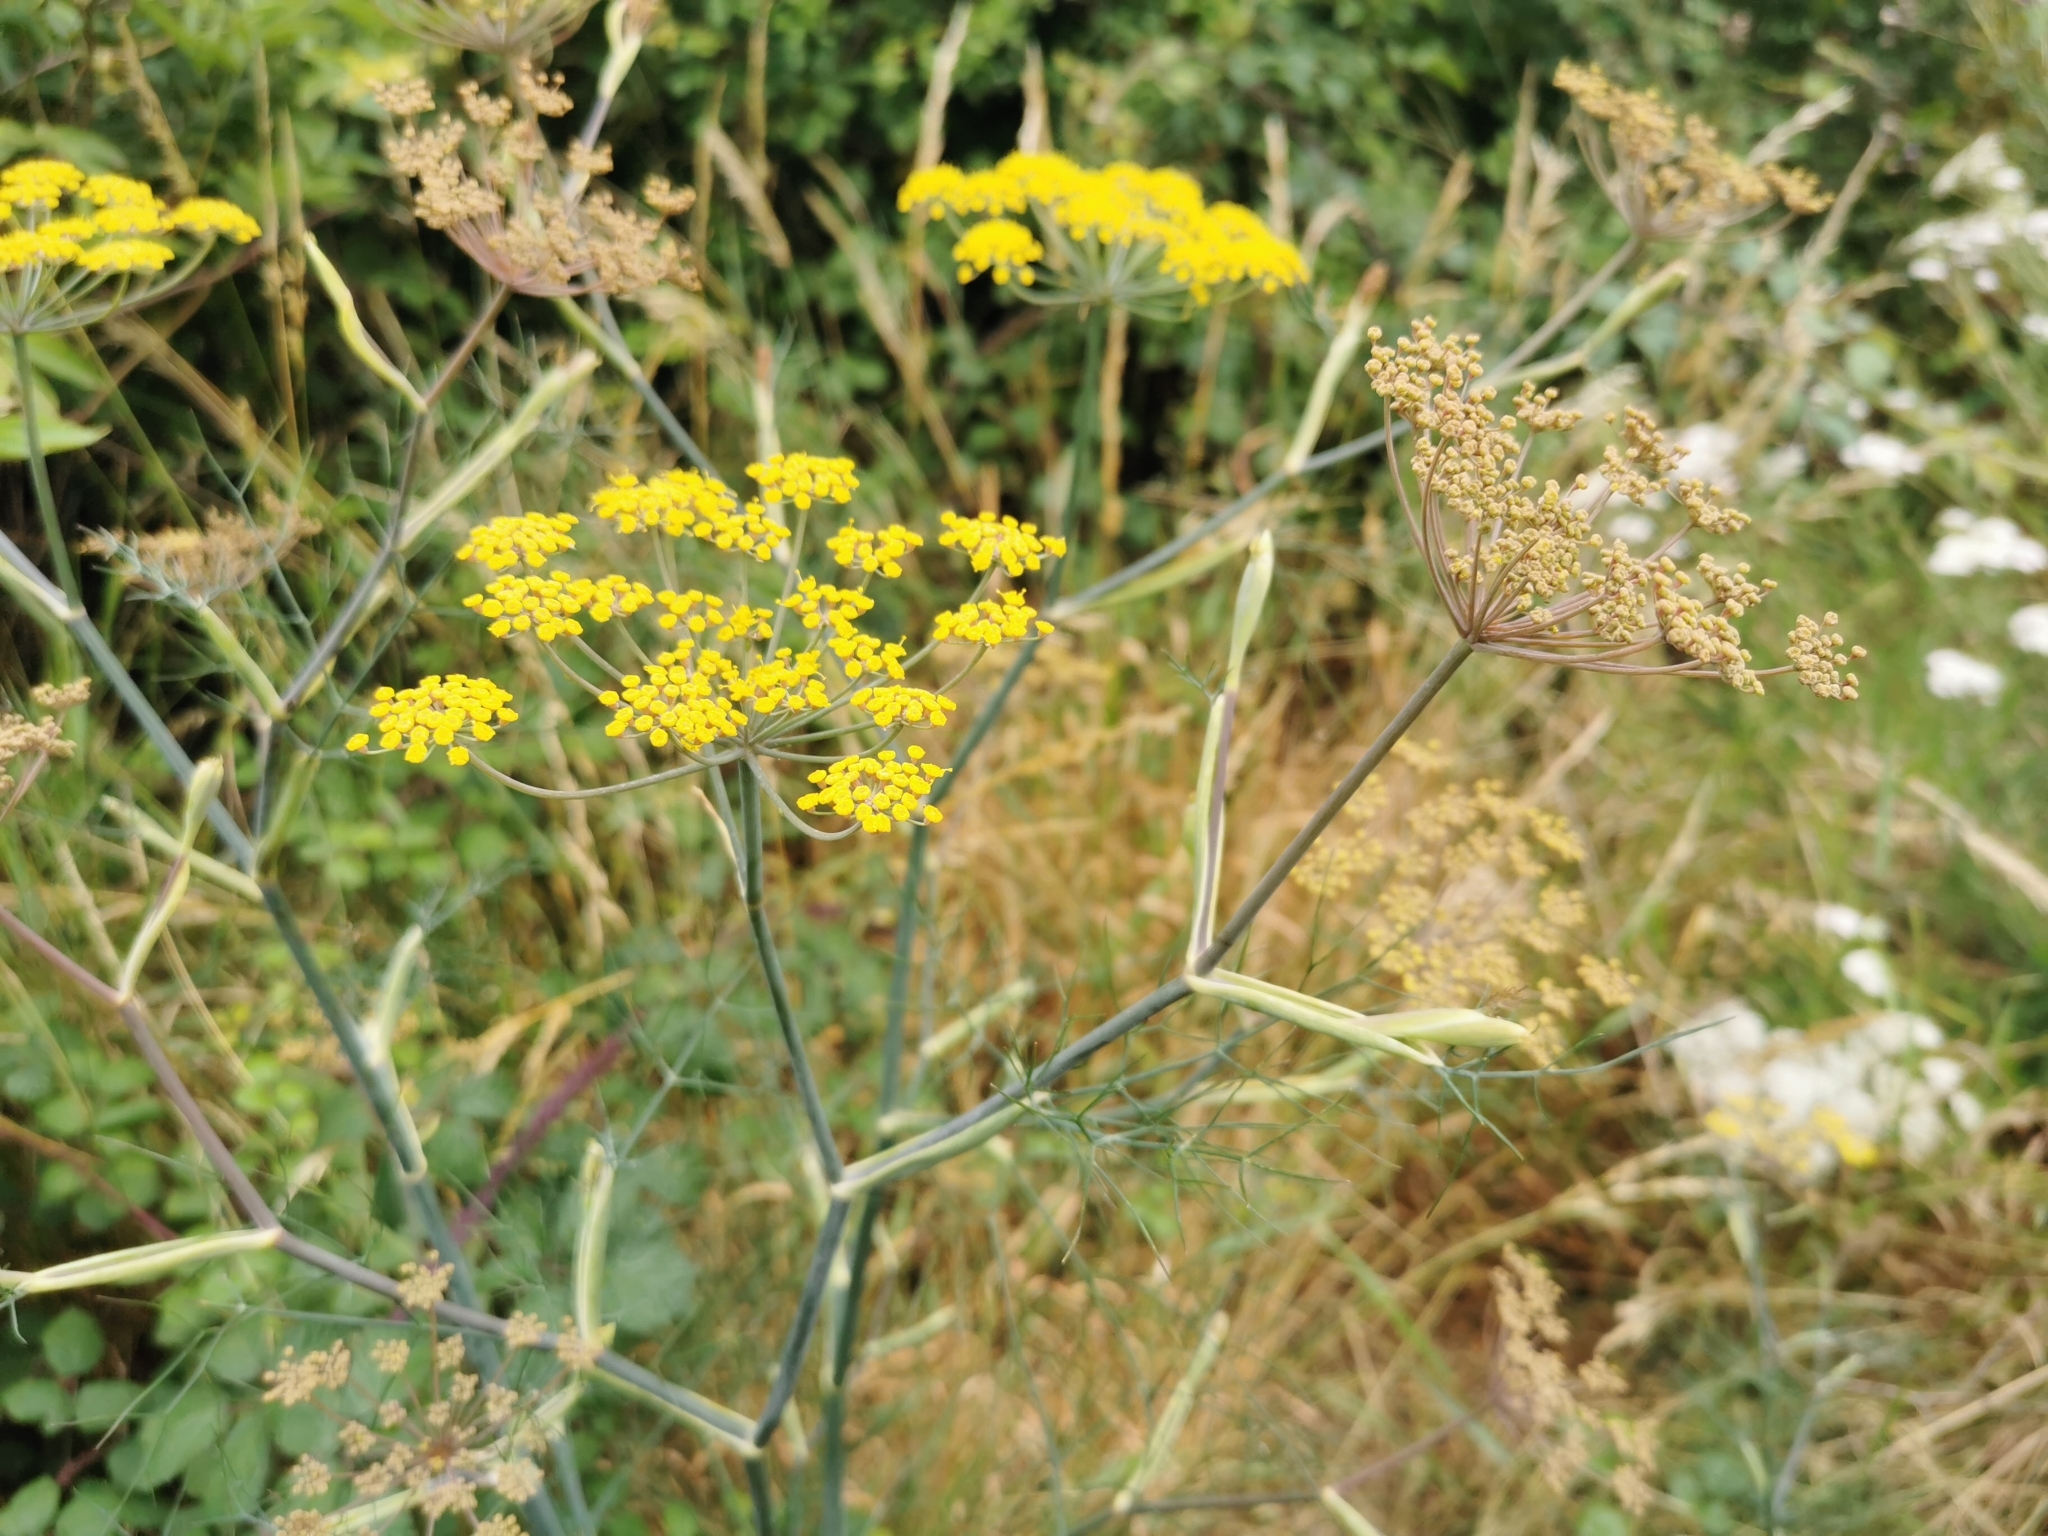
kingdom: Plantae
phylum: Tracheophyta
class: Magnoliopsida
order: Apiales
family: Apiaceae
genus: Foeniculum
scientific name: Foeniculum vulgare
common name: Fennel
